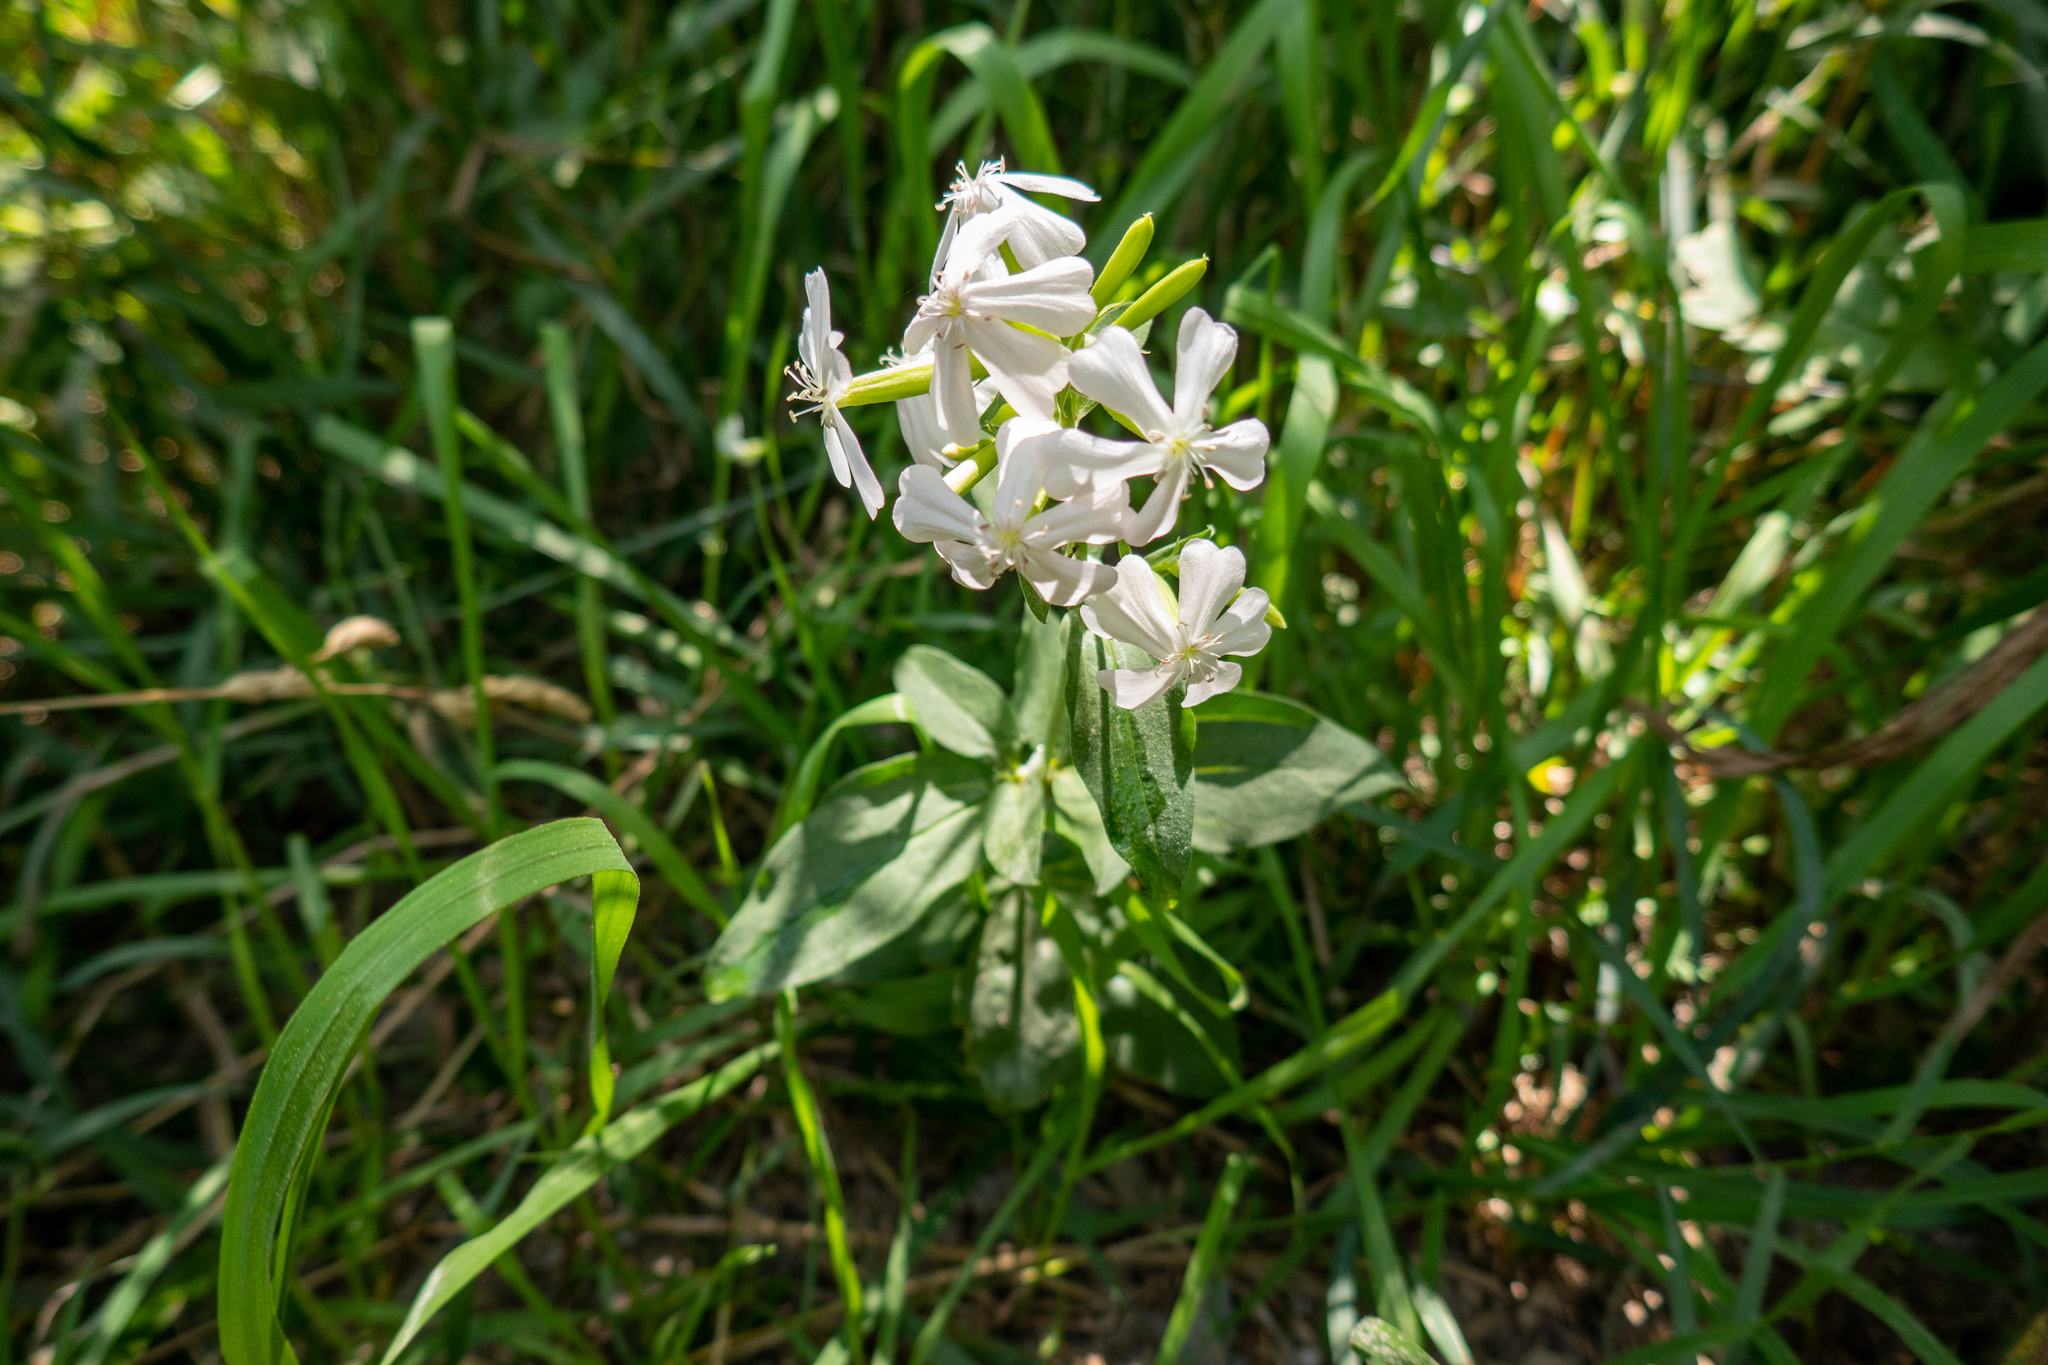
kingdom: Plantae
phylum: Tracheophyta
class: Magnoliopsida
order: Caryophyllales
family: Caryophyllaceae
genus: Saponaria
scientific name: Saponaria officinalis
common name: Soapwort
